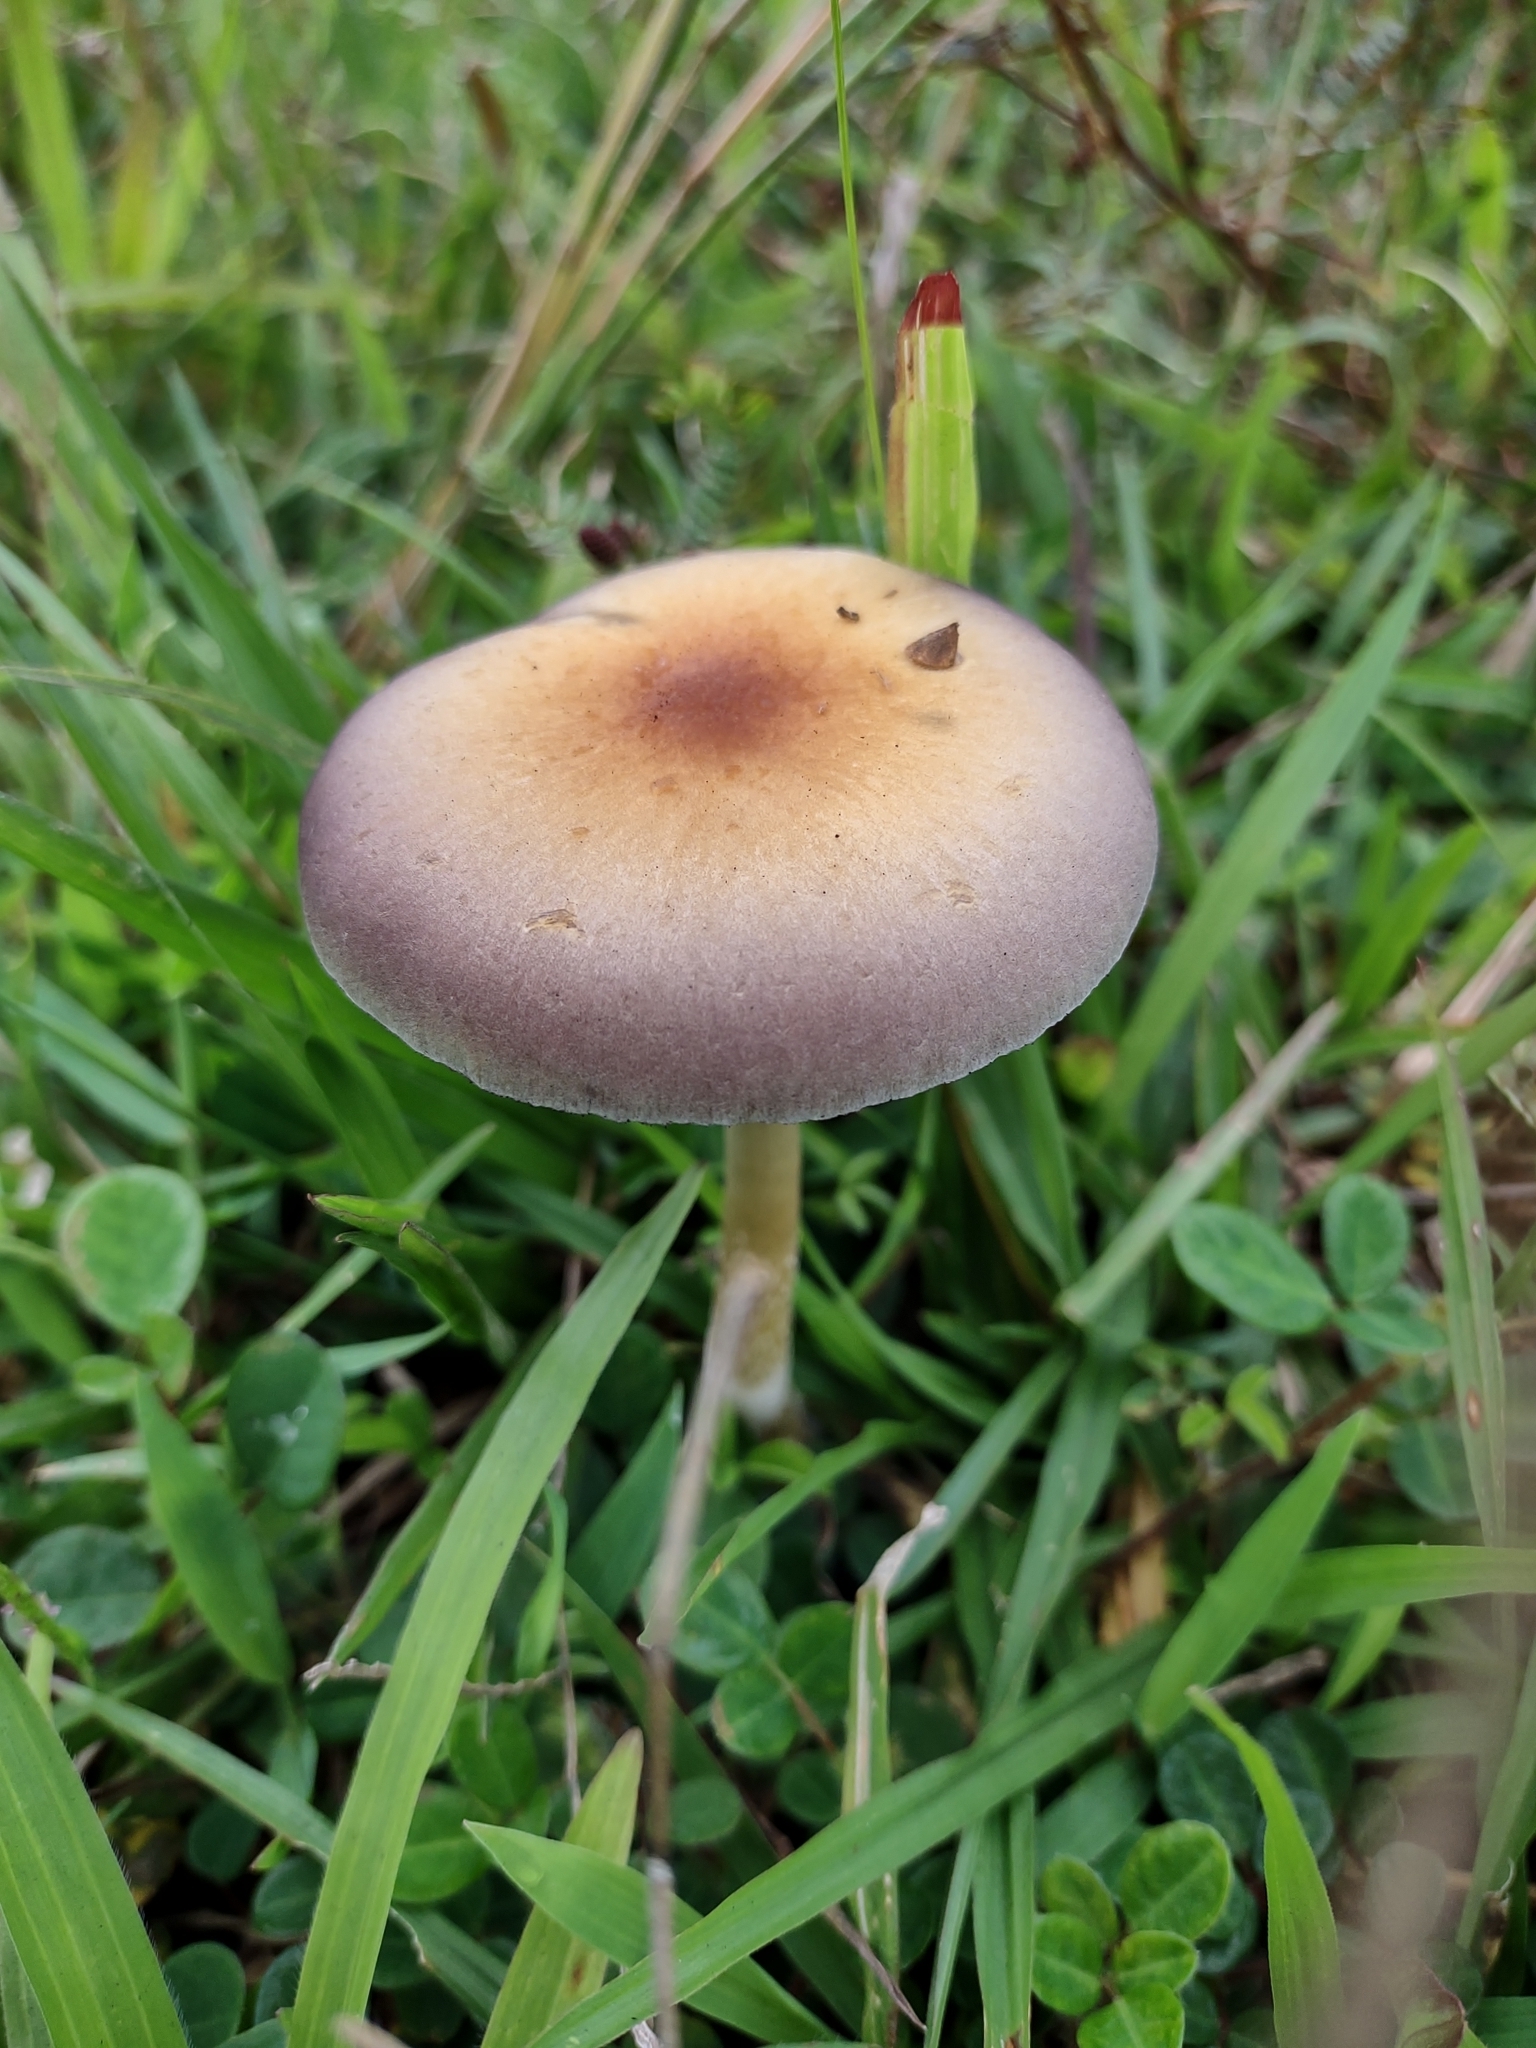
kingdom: Fungi
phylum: Basidiomycota
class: Agaricomycetes
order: Agaricales
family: Hymenogastraceae
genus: Psilocybe
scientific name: Psilocybe cubensis
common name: Golden brownie
